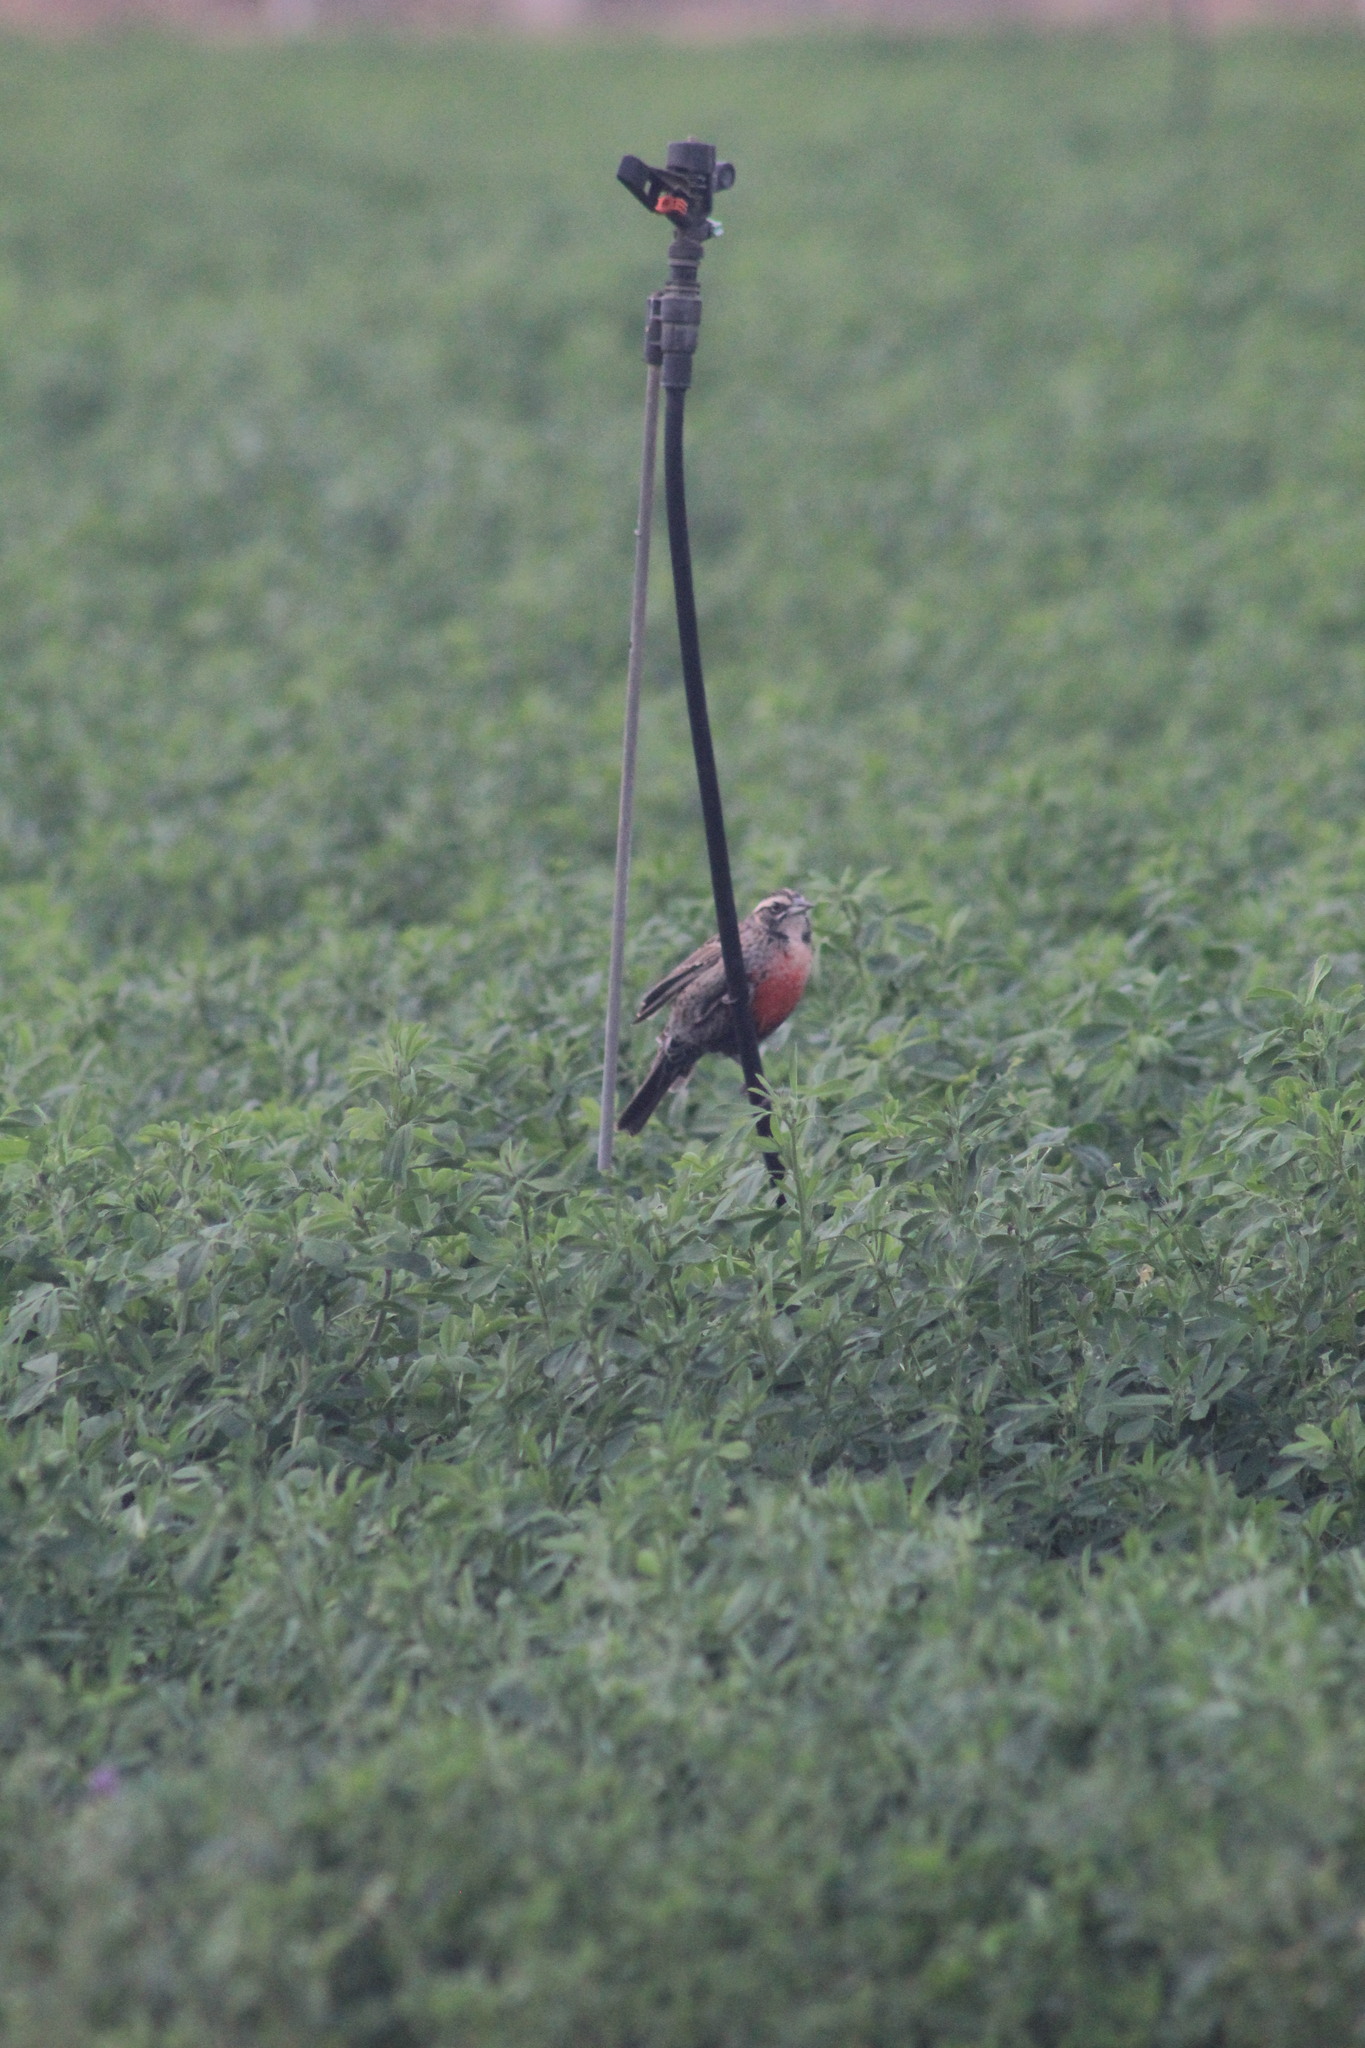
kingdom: Animalia
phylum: Chordata
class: Aves
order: Passeriformes
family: Icteridae
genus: Sturnella
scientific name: Sturnella loyca
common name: Long-tailed meadowlark
